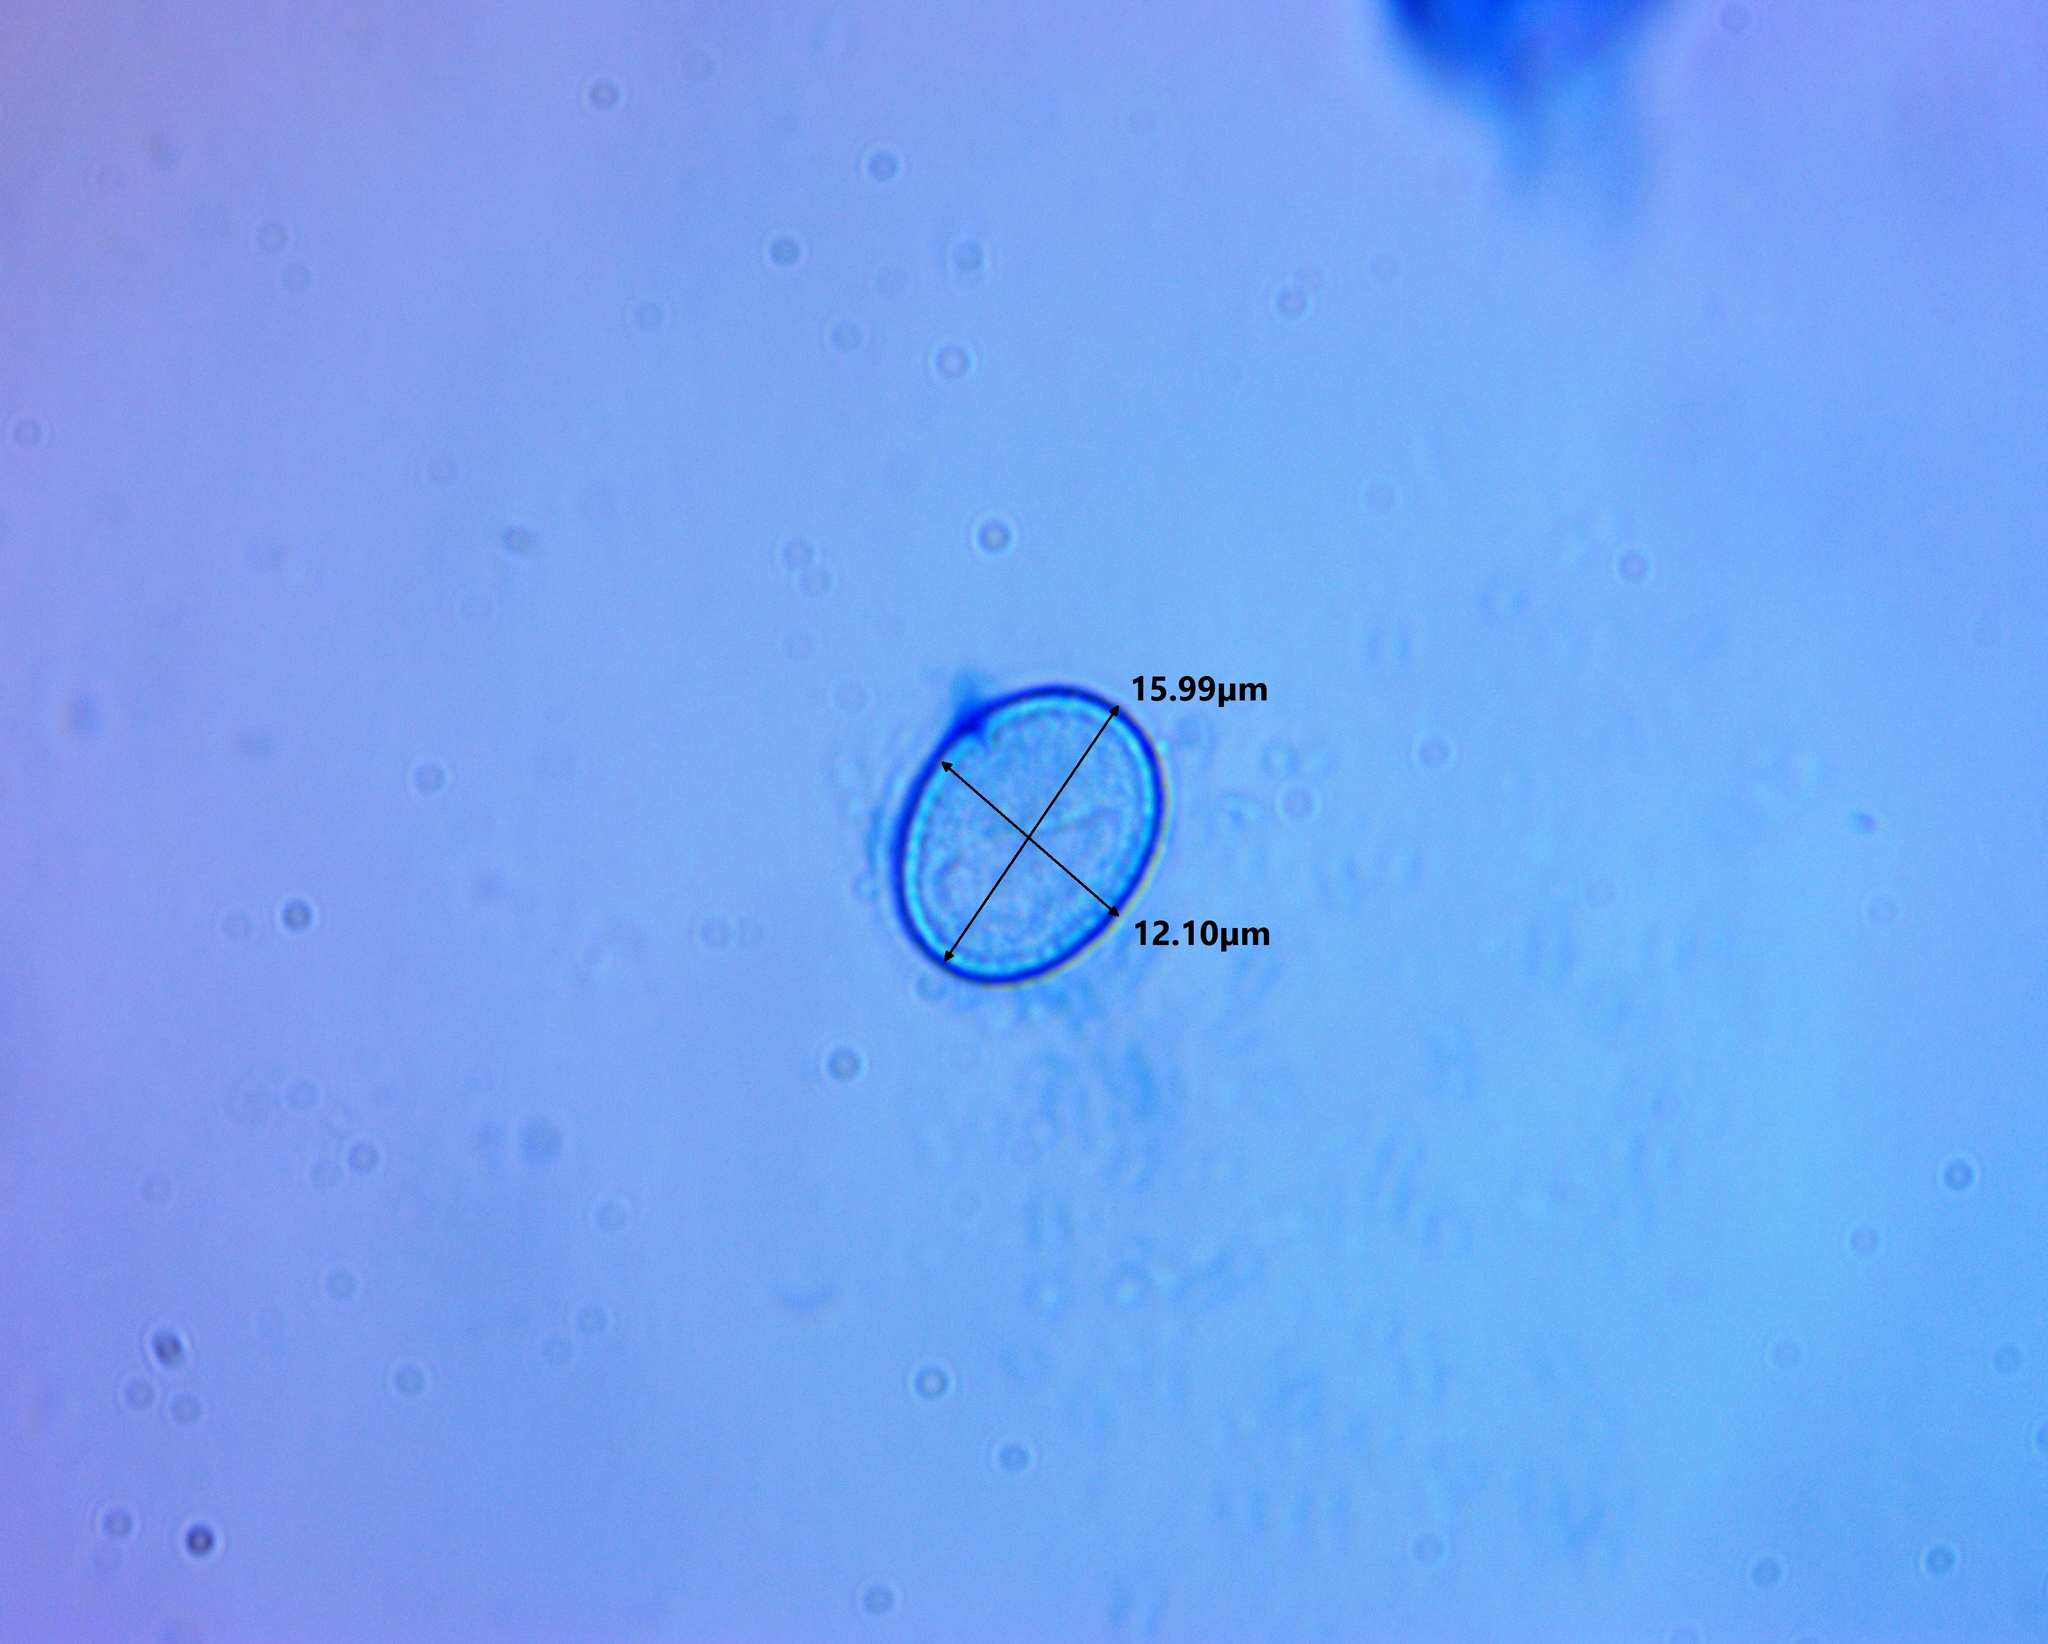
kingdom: Fungi
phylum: Ascomycota
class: Pezizomycetes
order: Pezizales
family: Pyronemataceae
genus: Scutellinia
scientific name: Scutellinia crinita
